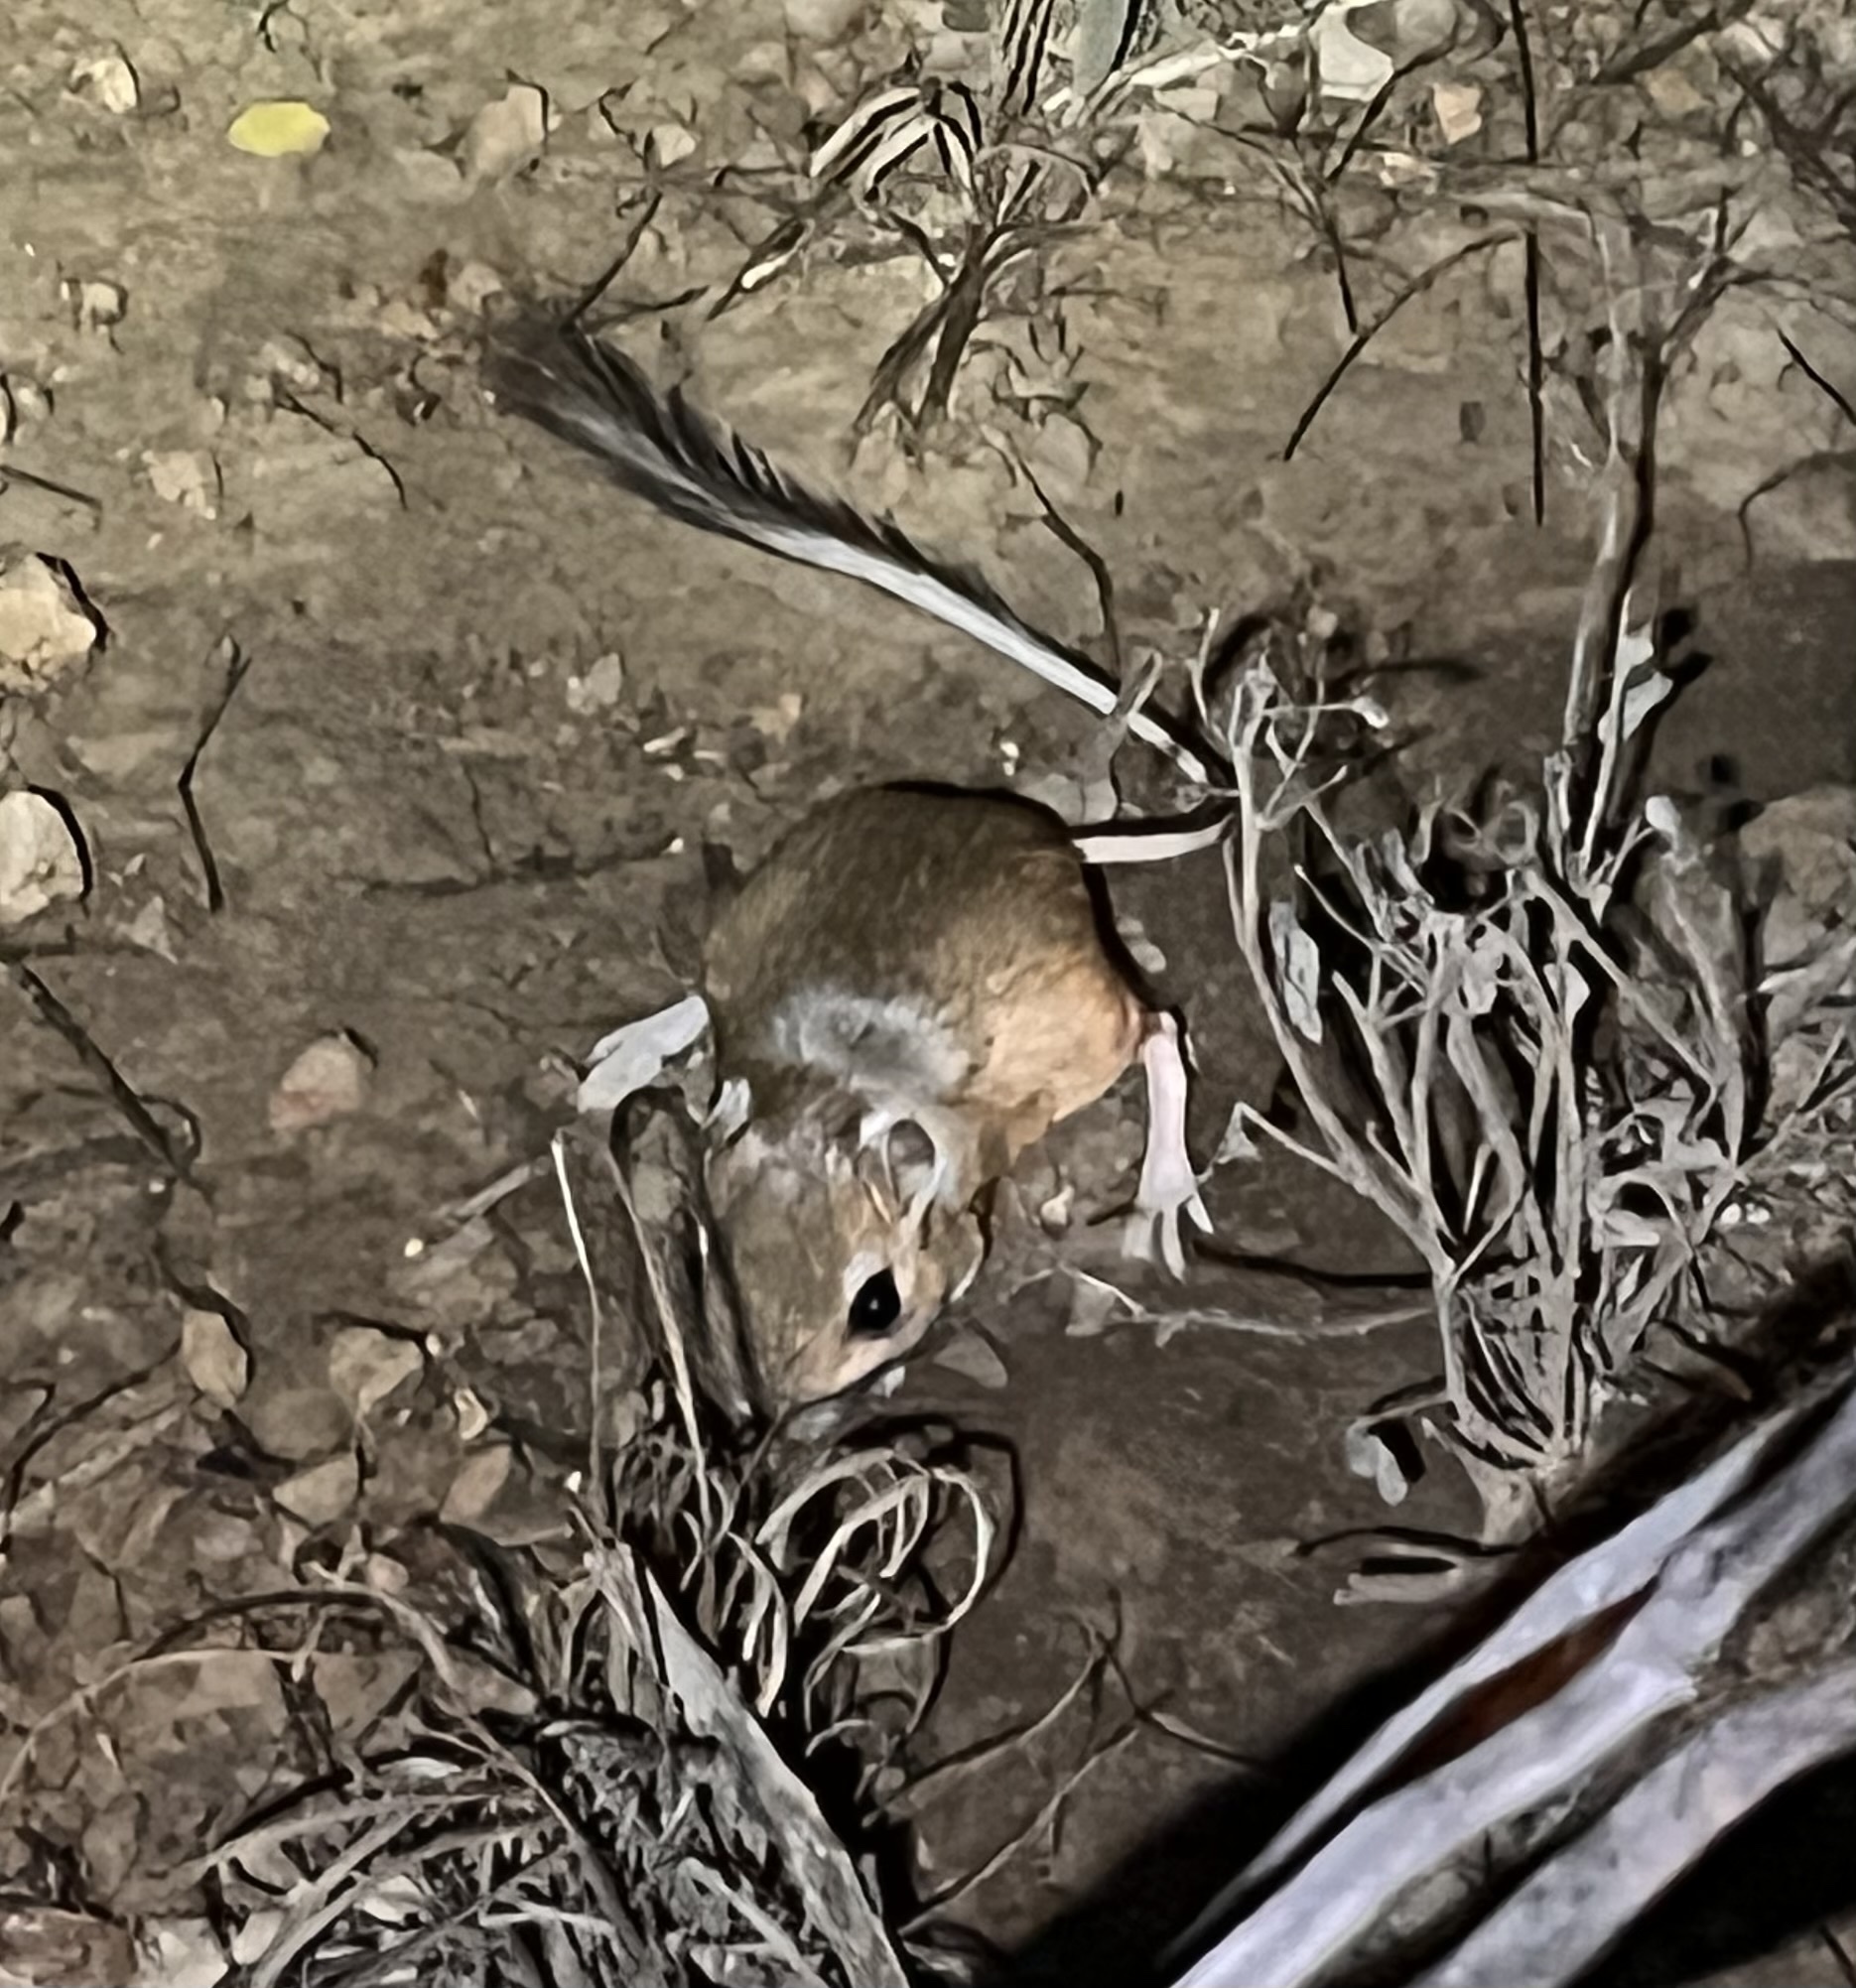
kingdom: Animalia
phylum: Chordata
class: Mammalia
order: Rodentia
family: Heteromyidae
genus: Dipodomys
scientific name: Dipodomys merriami
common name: Merriam's kangaroo rat
